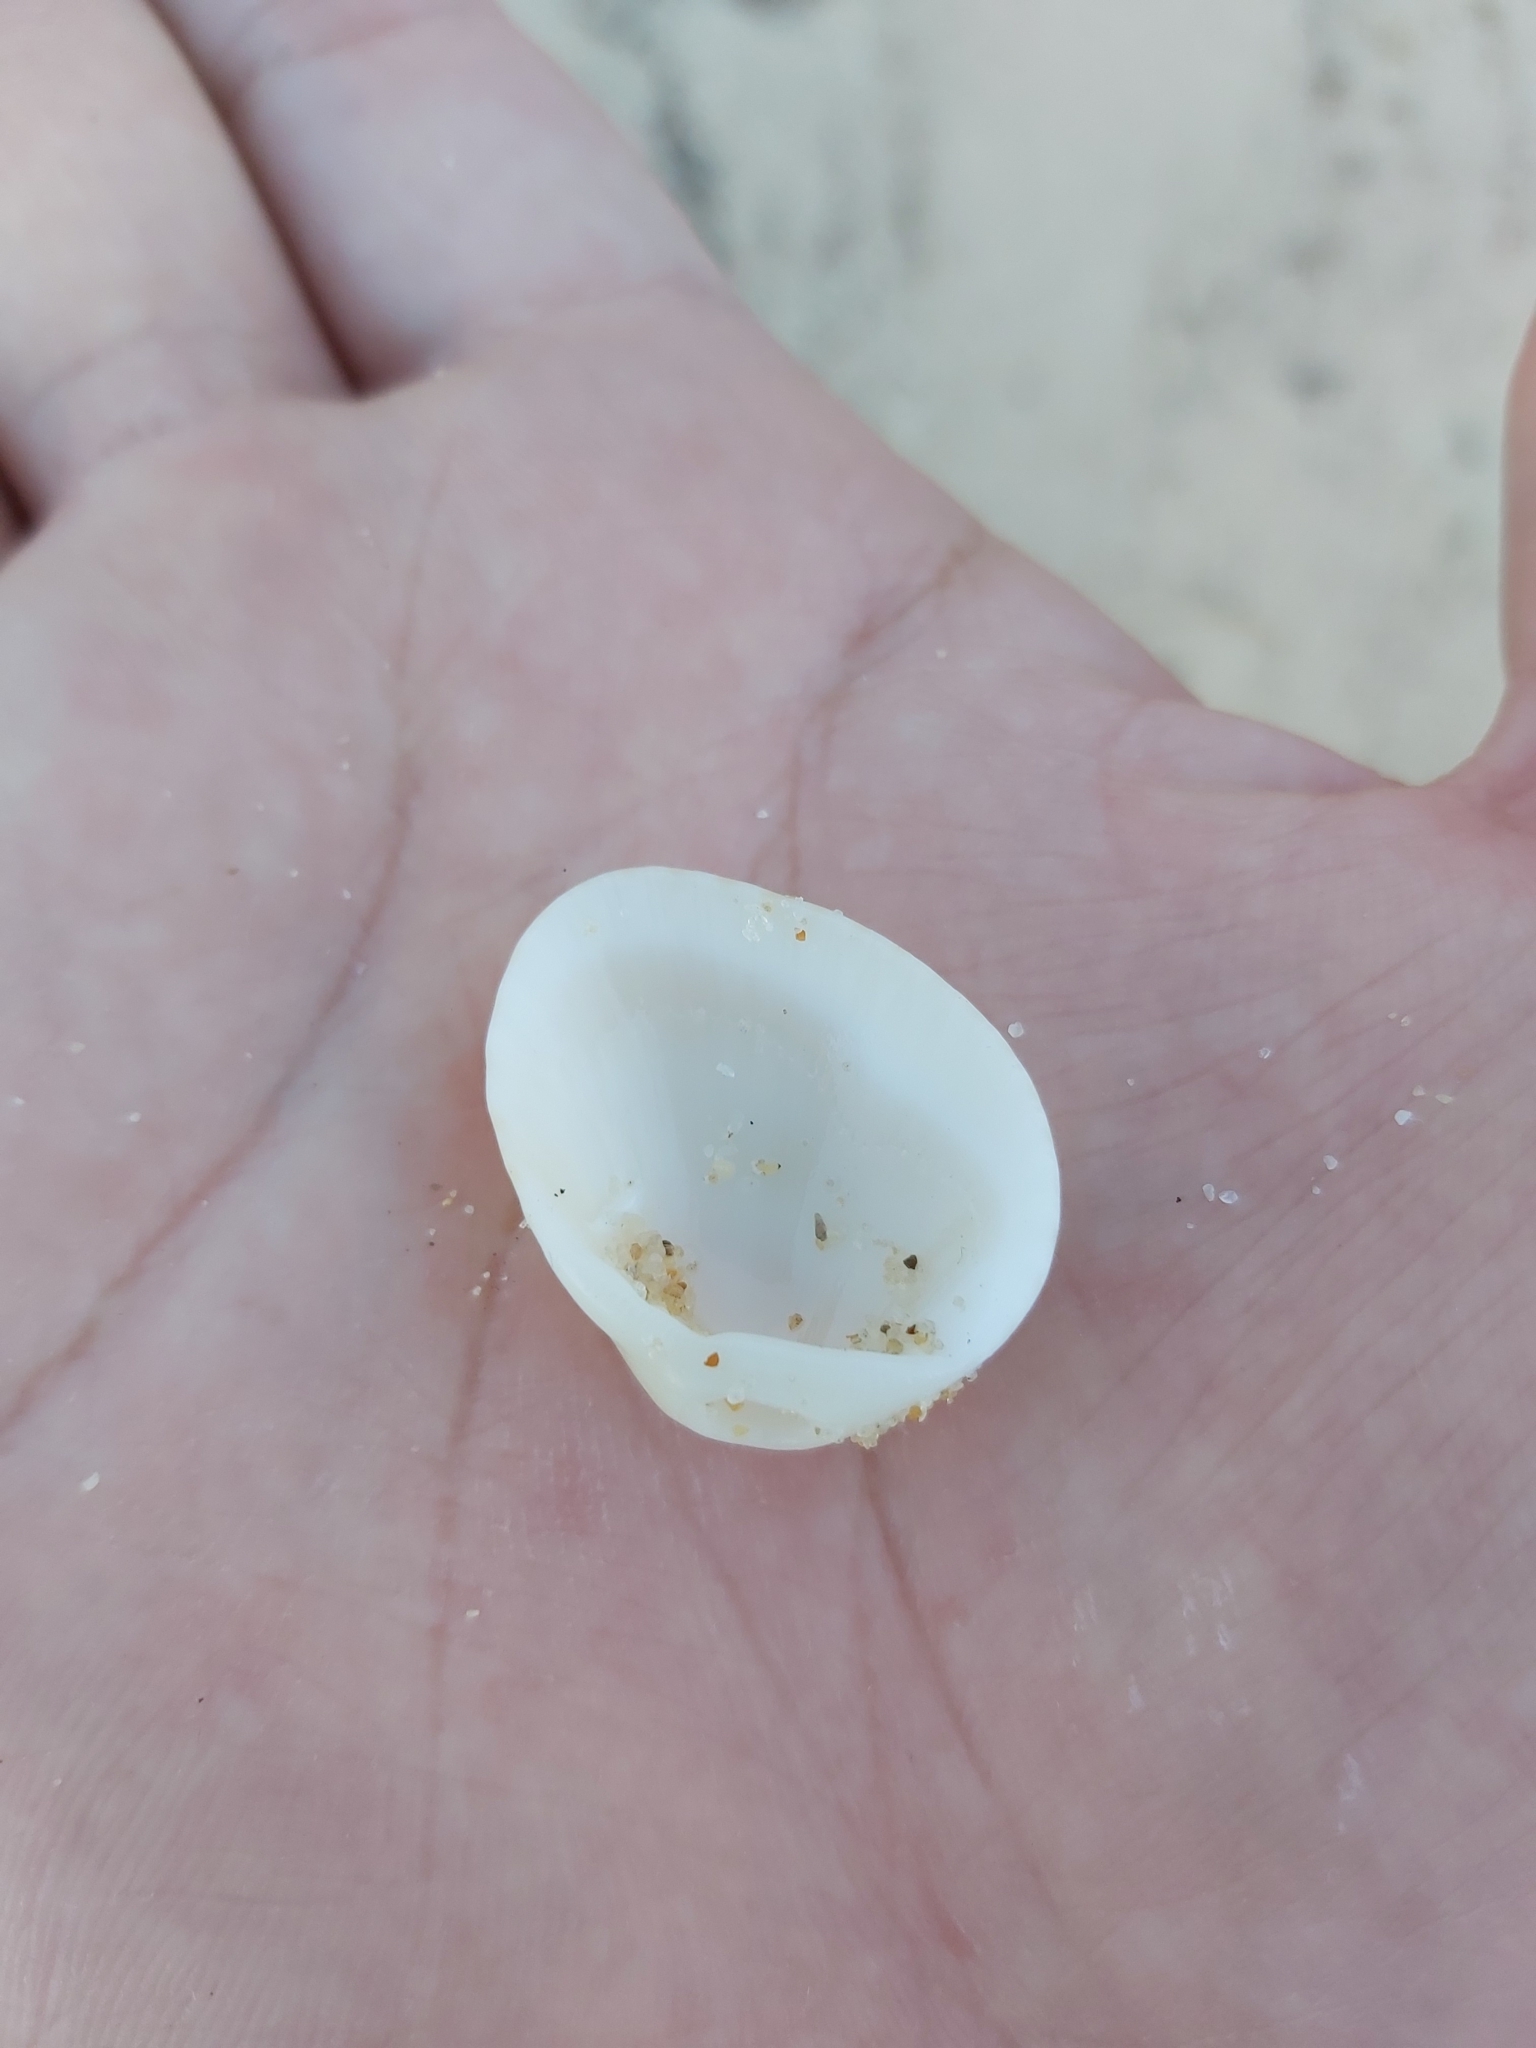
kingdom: Animalia
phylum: Mollusca
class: Bivalvia
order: Arcida
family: Arcidae
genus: Anadara
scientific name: Anadara trapezia
